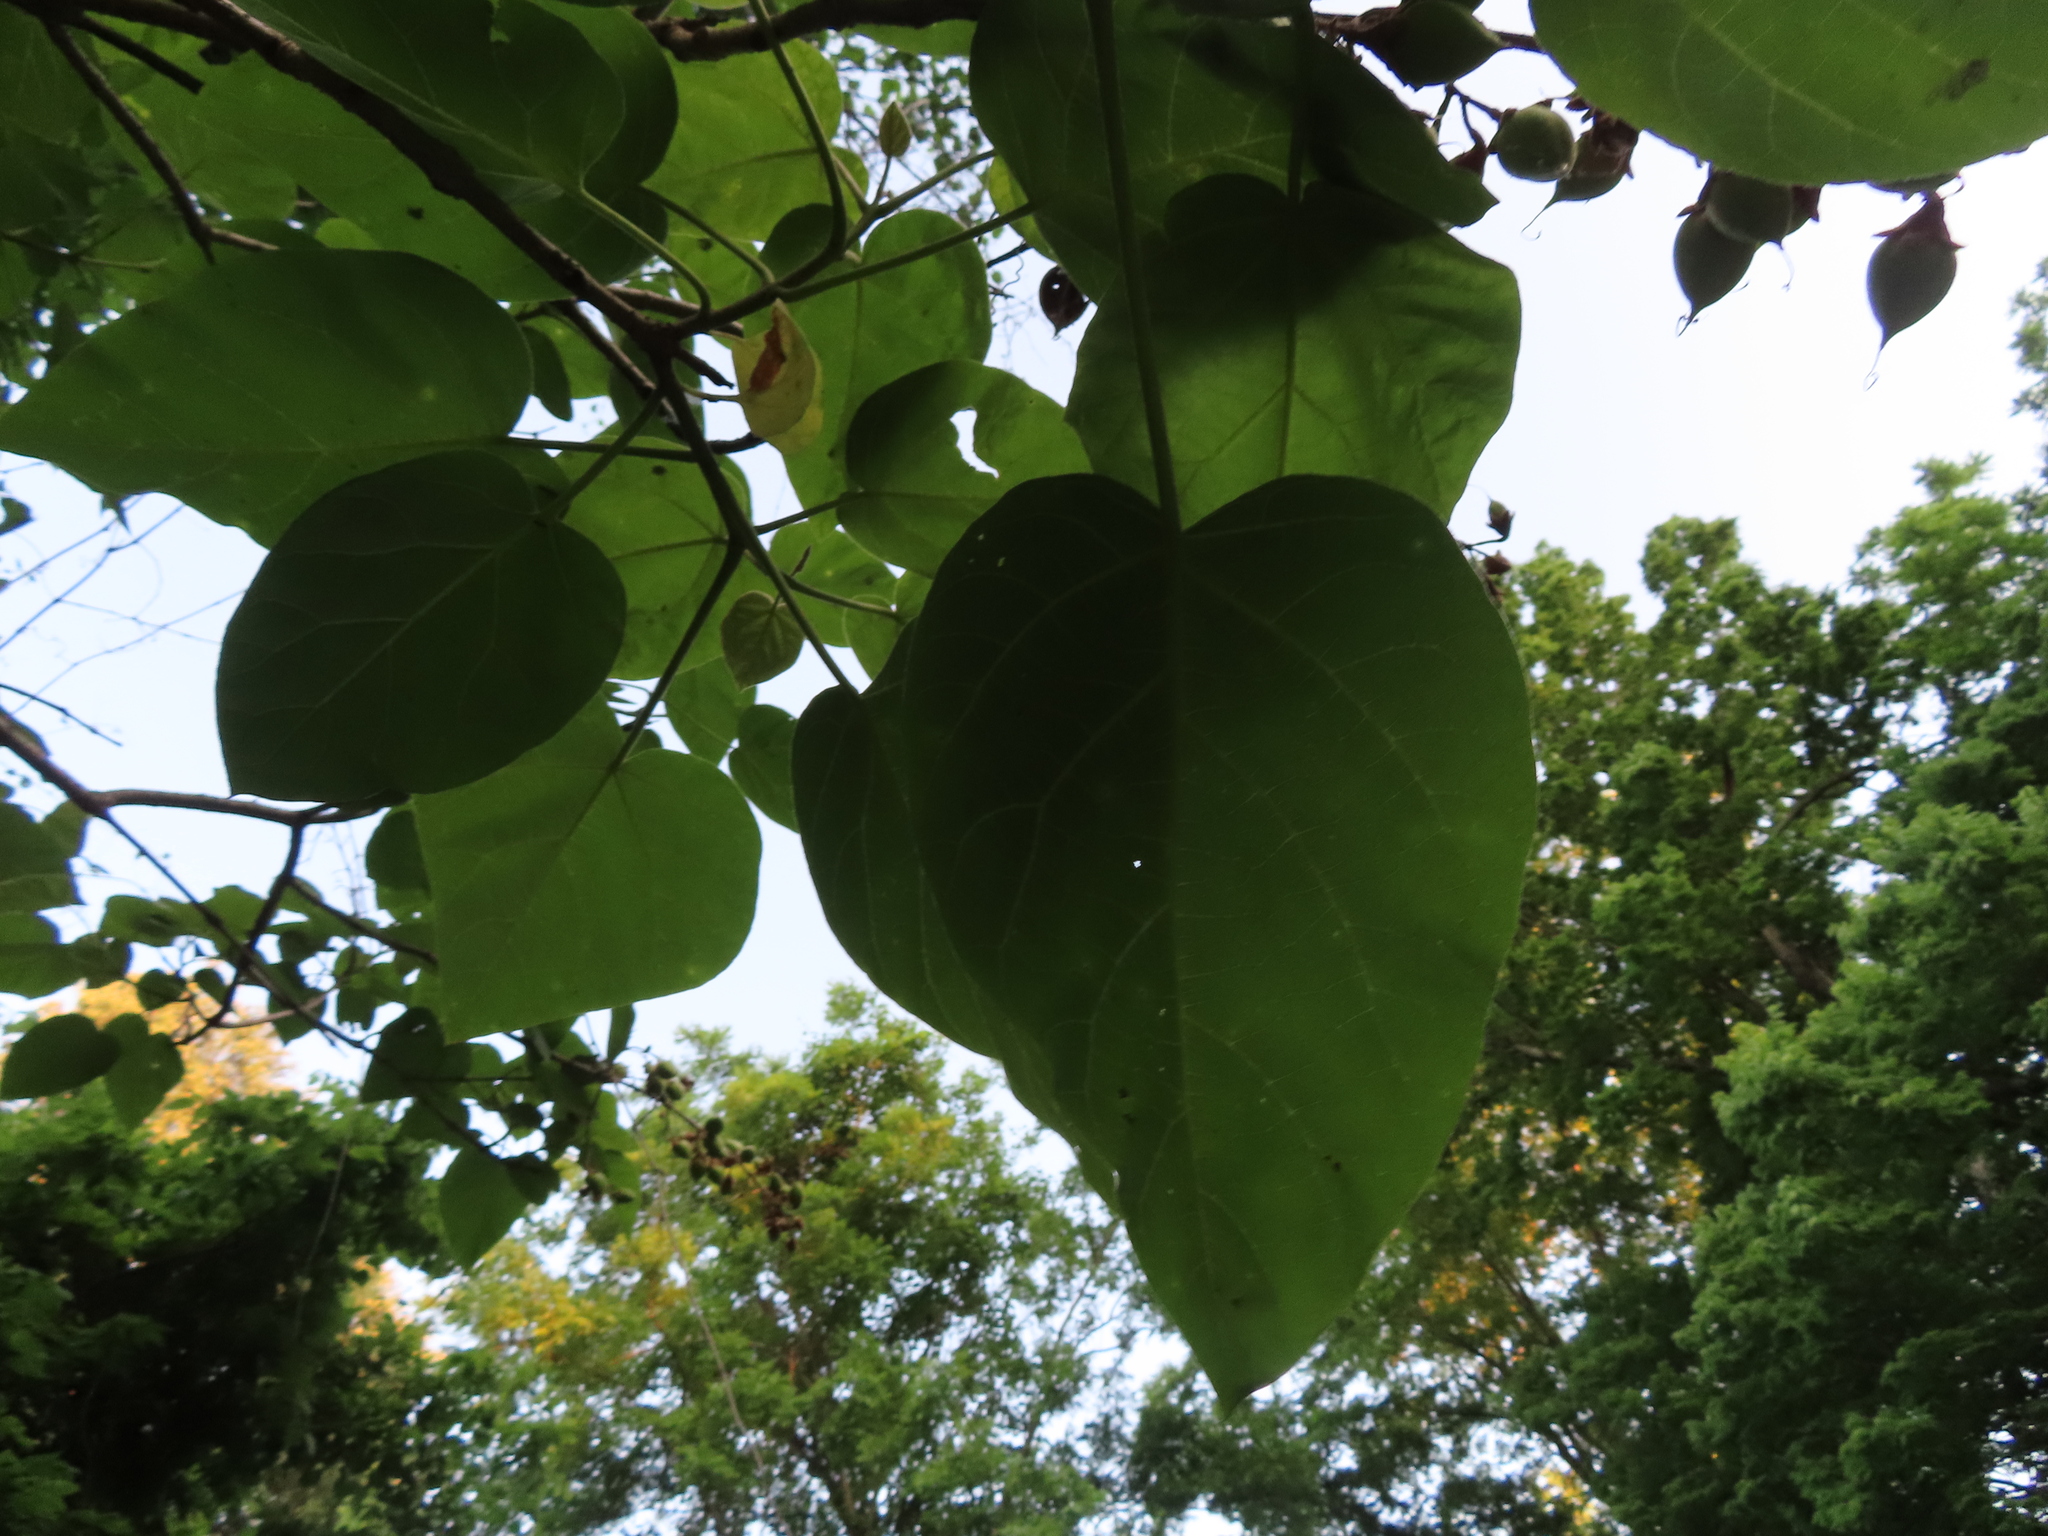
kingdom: Plantae
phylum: Tracheophyta
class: Magnoliopsida
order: Lamiales
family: Paulowniaceae
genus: Paulownia
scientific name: Paulownia tomentosa
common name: Foxglove-tree
